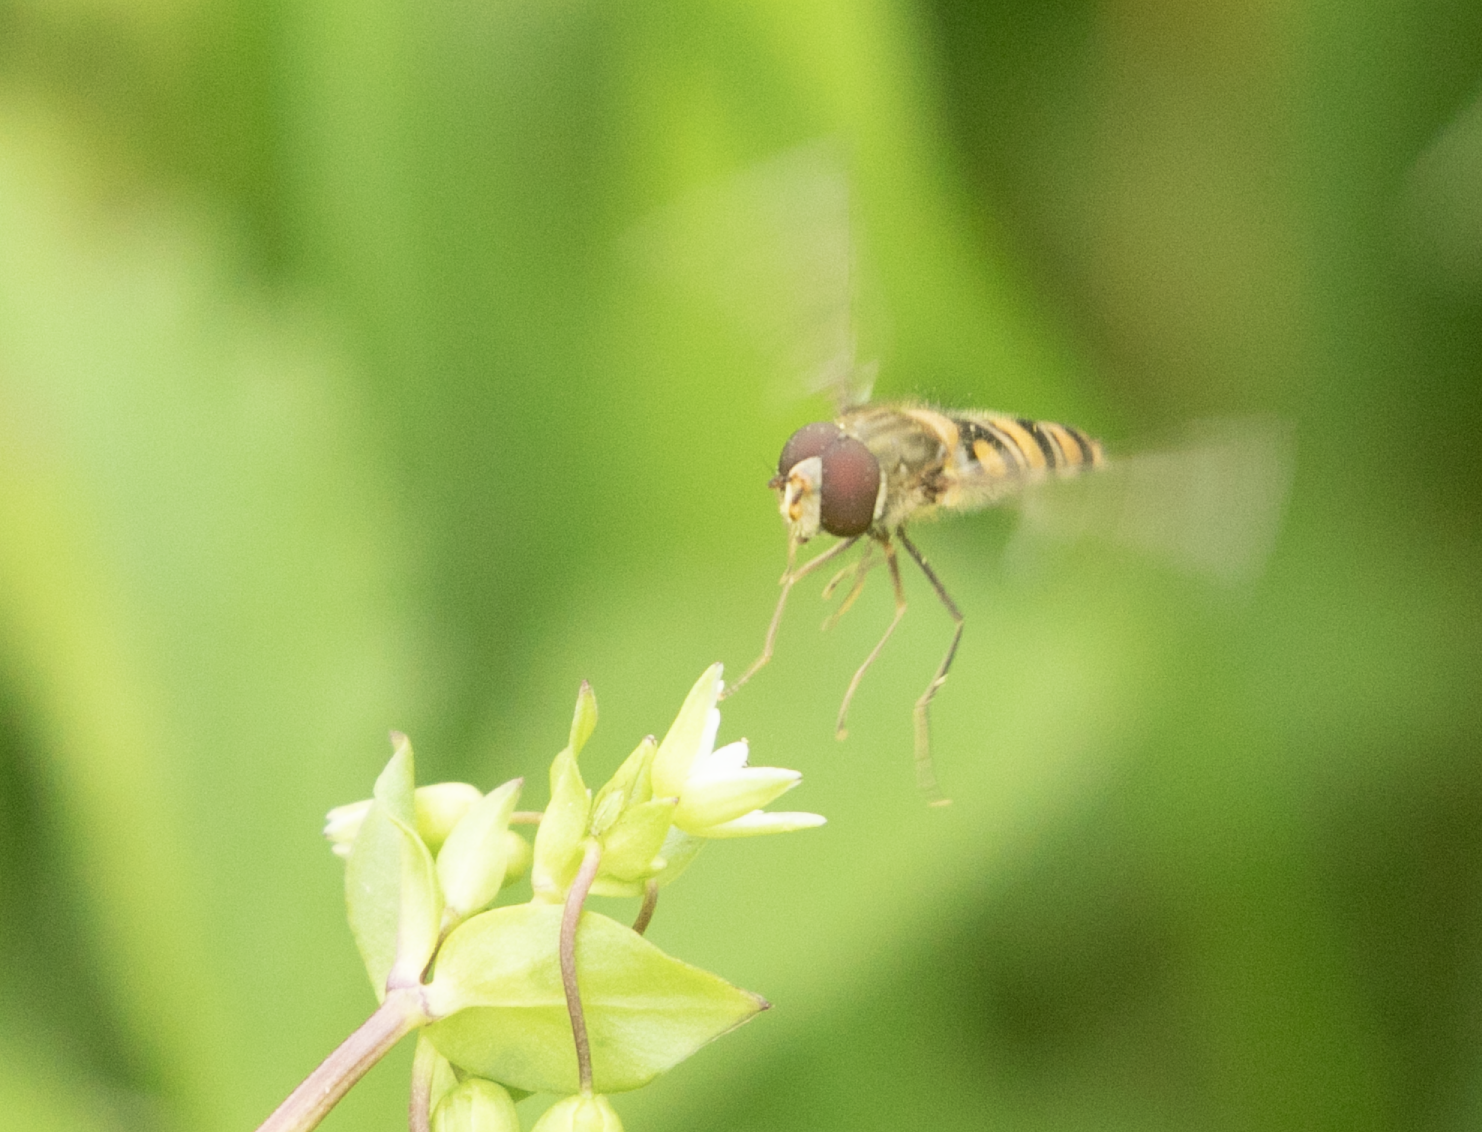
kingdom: Animalia
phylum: Arthropoda
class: Insecta
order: Diptera
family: Syrphidae
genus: Episyrphus
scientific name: Episyrphus balteatus
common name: Marmalade hoverfly
